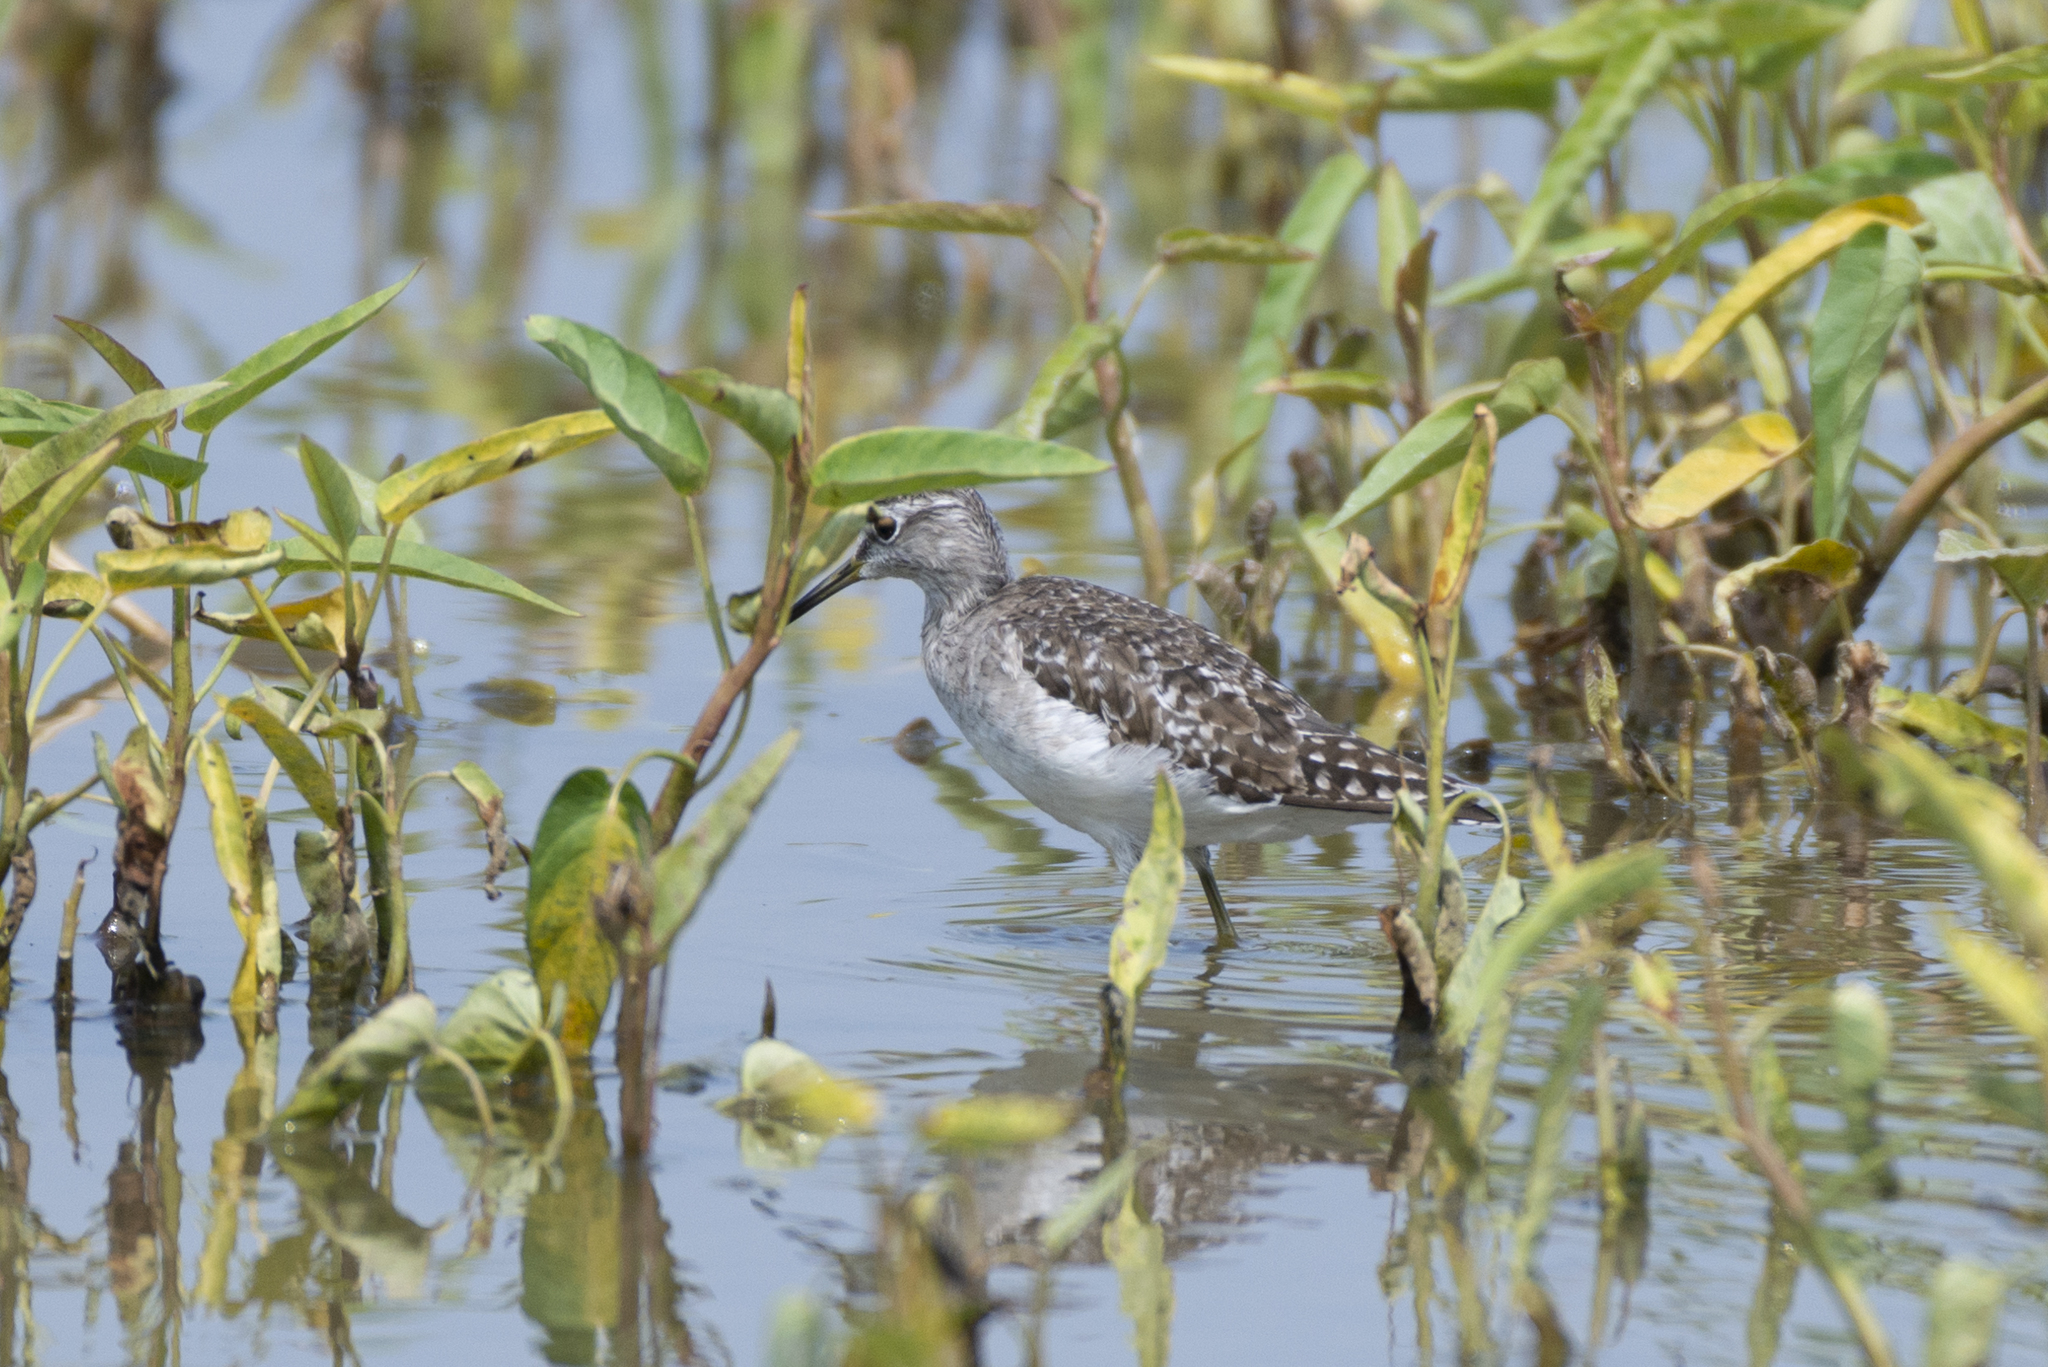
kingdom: Animalia
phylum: Chordata
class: Aves
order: Charadriiformes
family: Scolopacidae
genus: Tringa
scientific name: Tringa glareola
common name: Wood sandpiper
